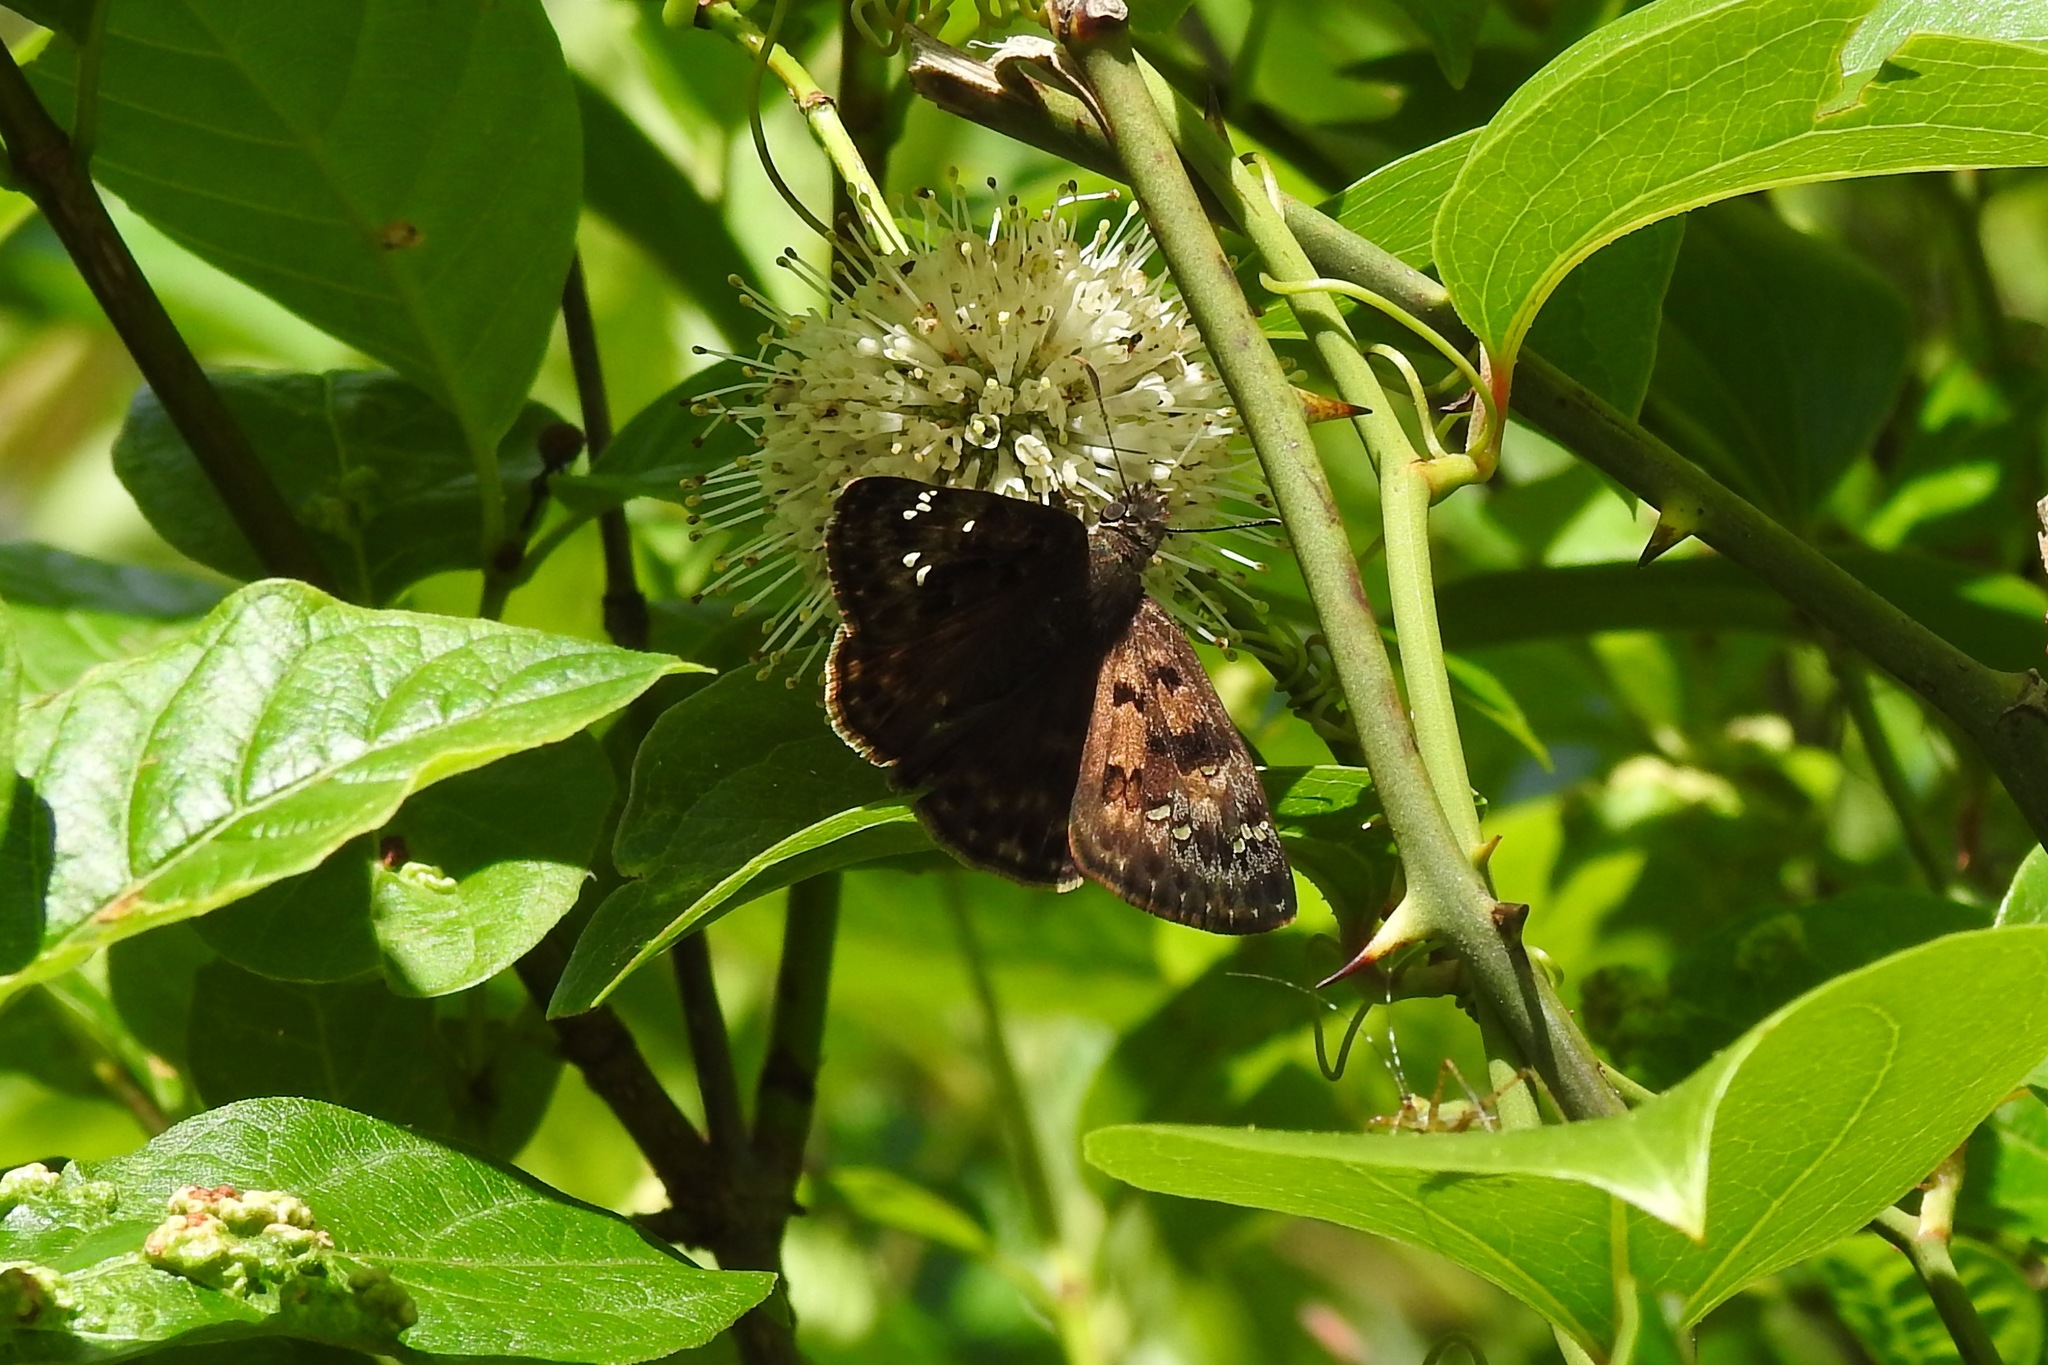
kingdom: Animalia
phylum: Arthropoda
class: Insecta
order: Lepidoptera
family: Hesperiidae
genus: Erynnis
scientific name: Erynnis horatius
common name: Horace's duskywing
